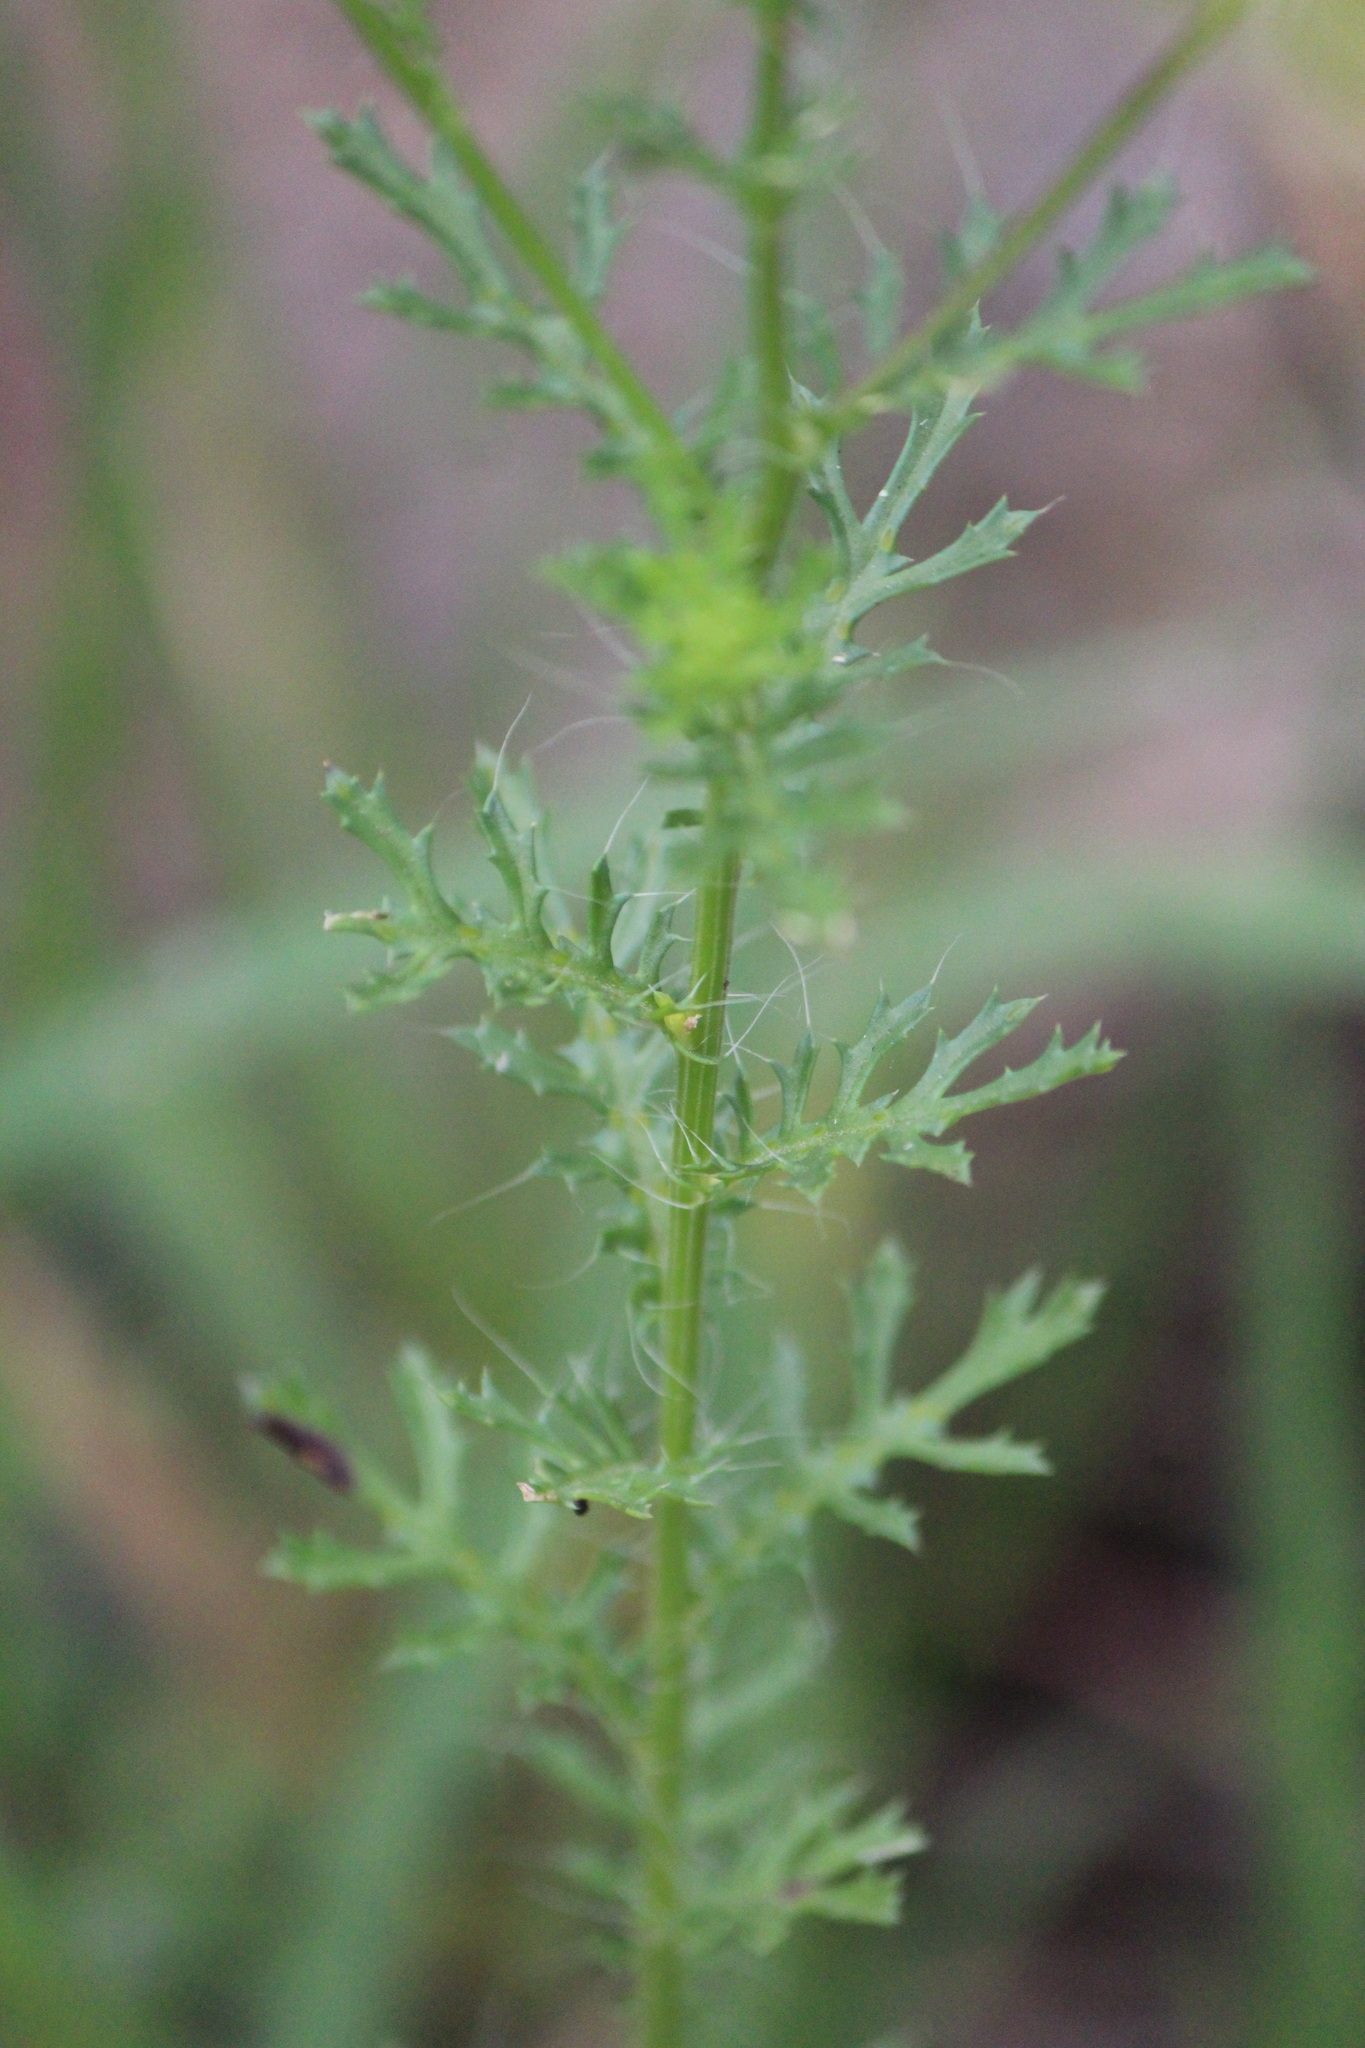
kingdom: Plantae
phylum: Tracheophyta
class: Magnoliopsida
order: Asterales
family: Asteraceae
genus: Adenophyllum
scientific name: Adenophyllum cancellatum
